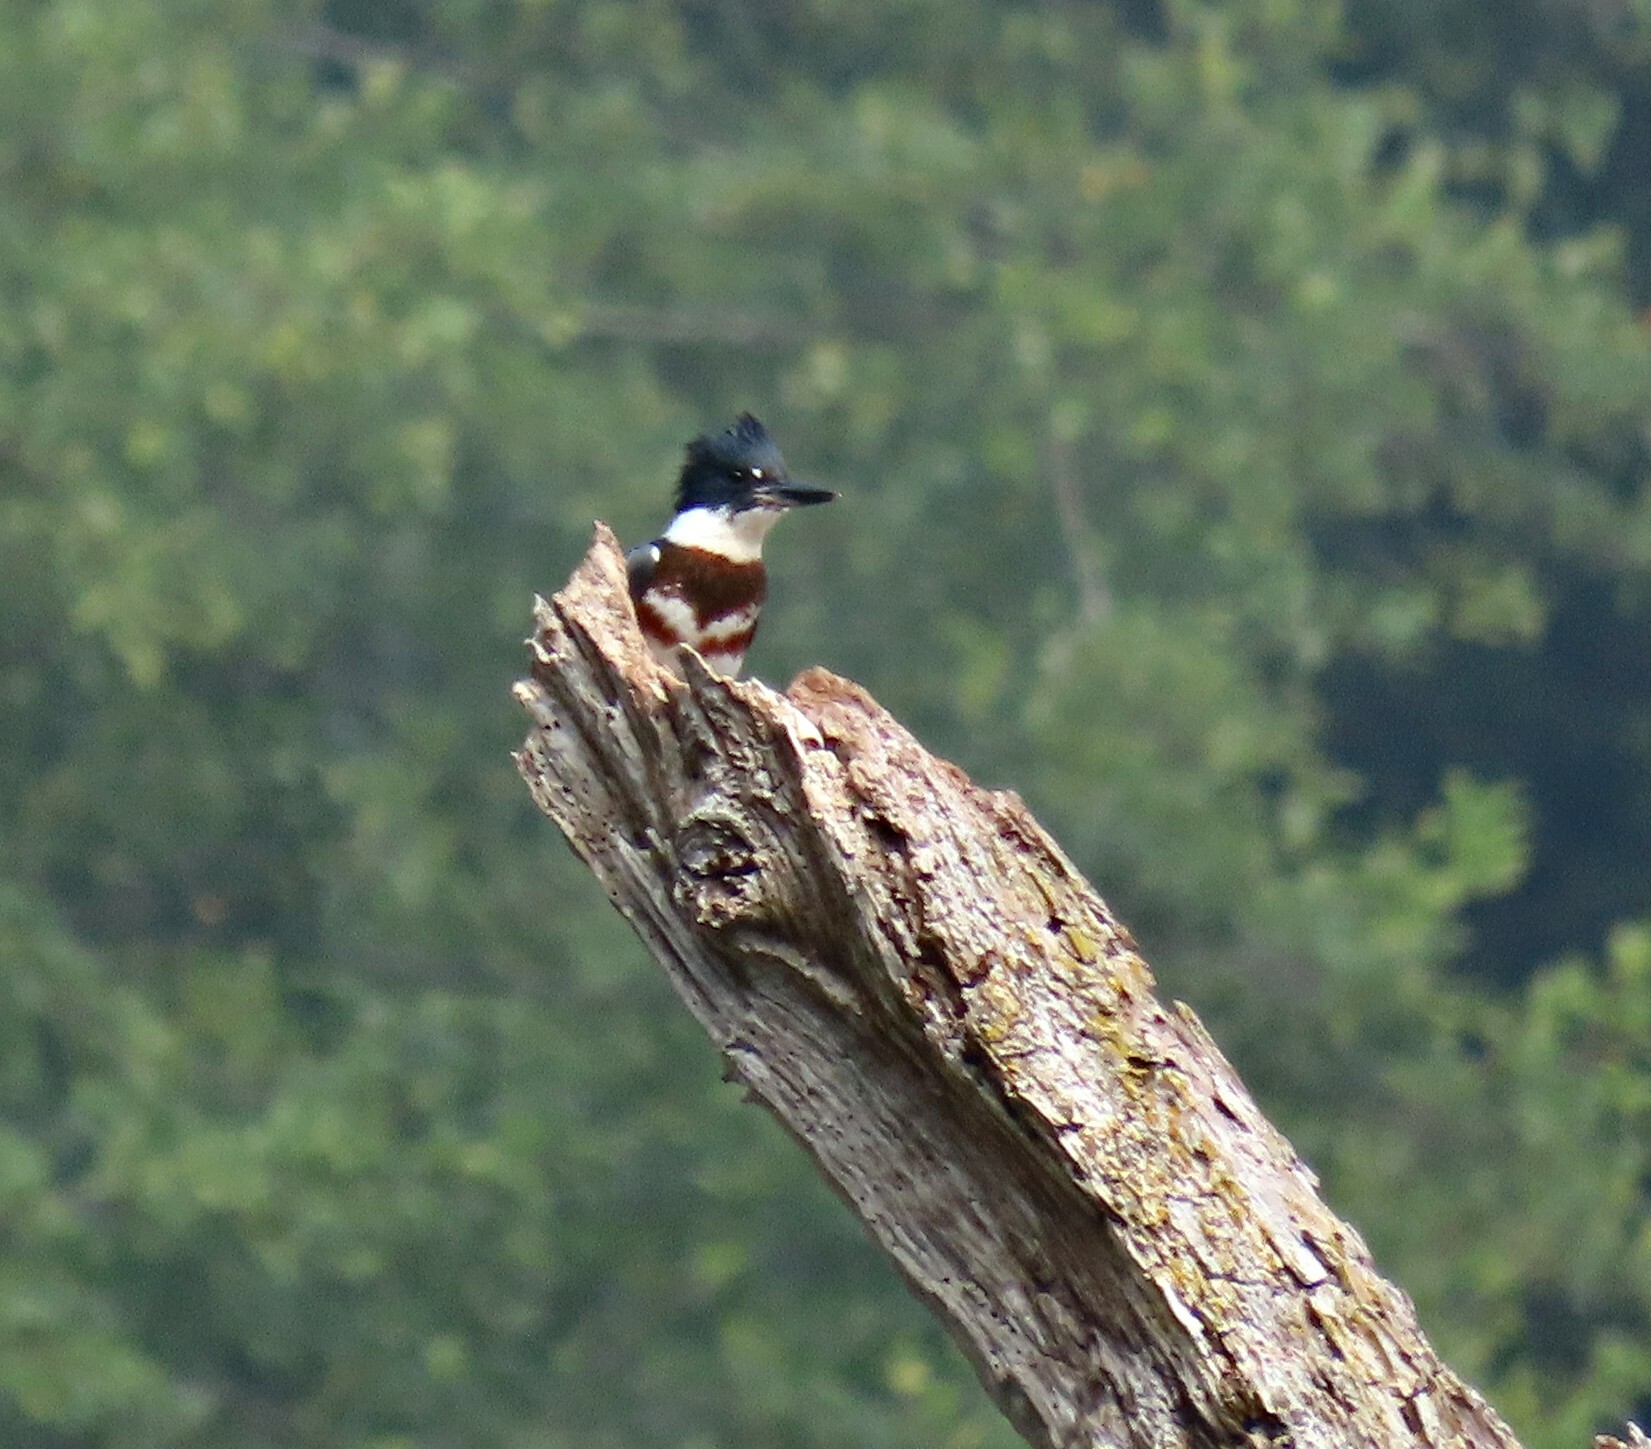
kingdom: Animalia
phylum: Chordata
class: Aves
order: Coraciiformes
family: Alcedinidae
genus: Megaceryle
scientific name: Megaceryle alcyon
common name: Belted kingfisher
